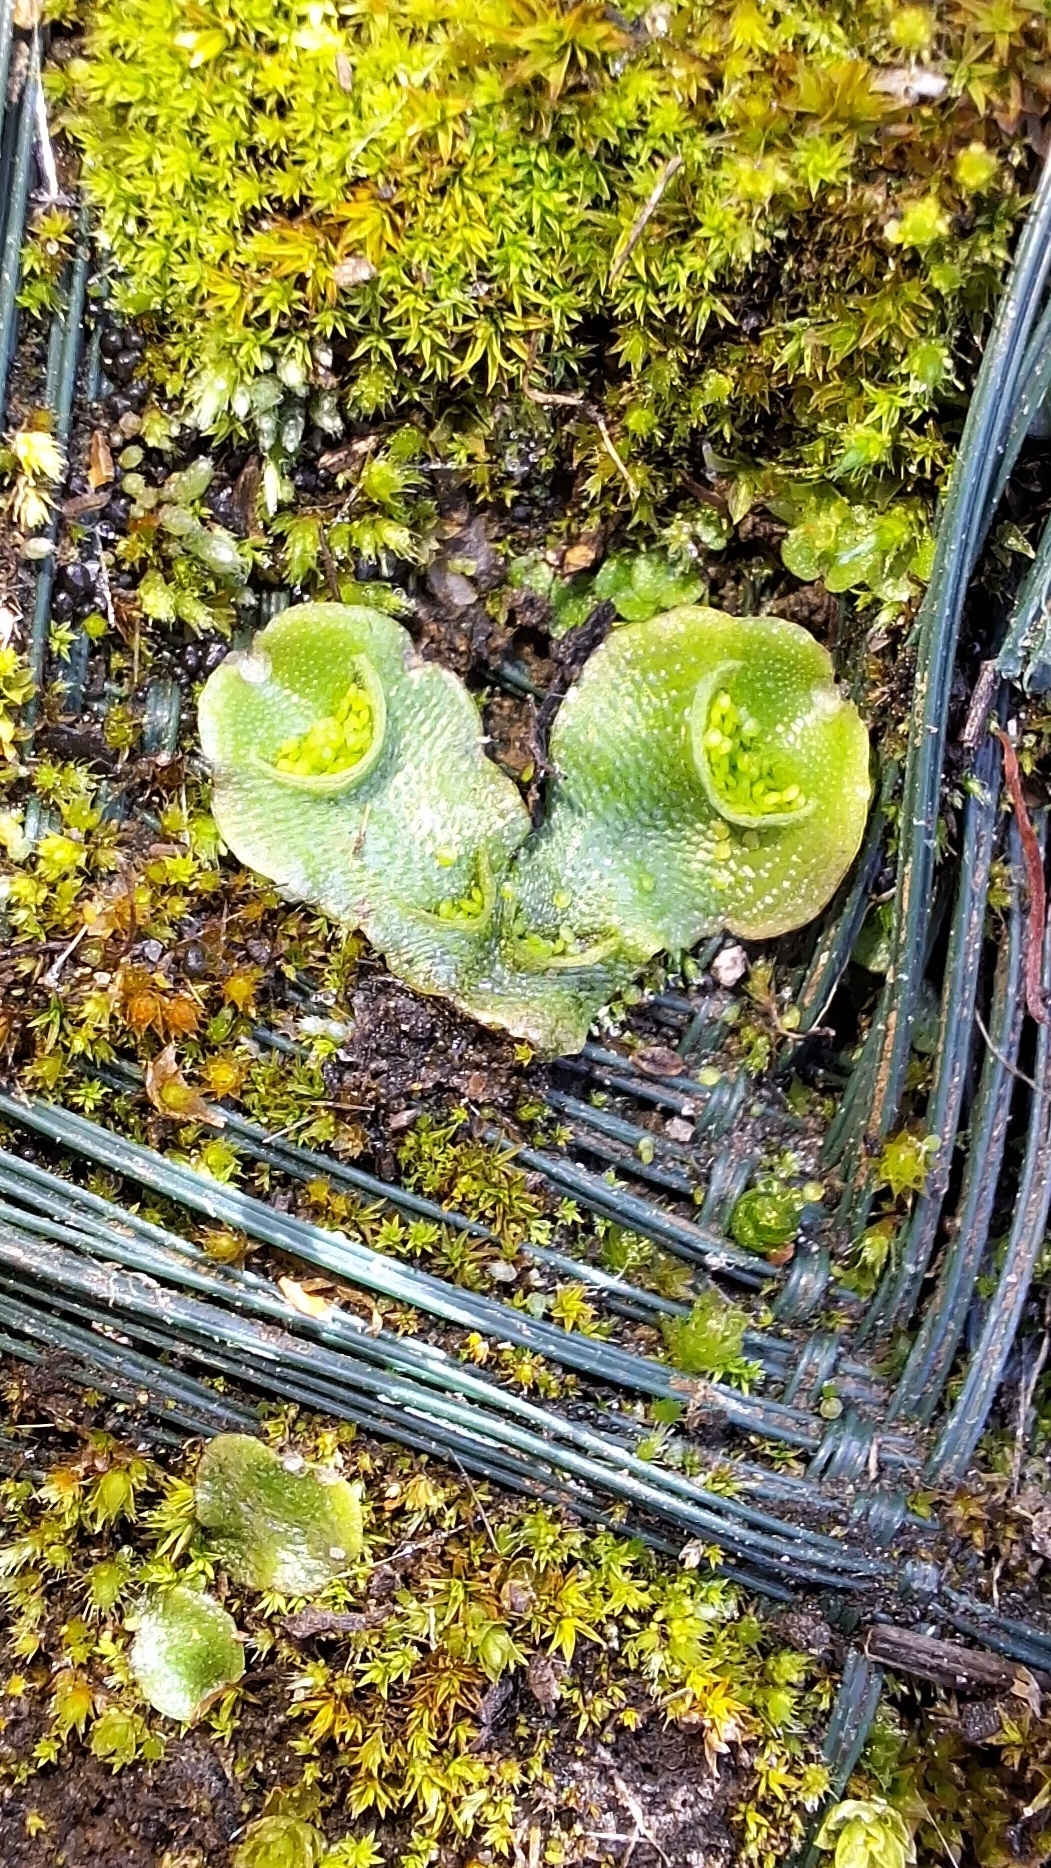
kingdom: Plantae
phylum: Marchantiophyta
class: Marchantiopsida
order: Lunulariales
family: Lunulariaceae
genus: Lunularia
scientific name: Lunularia cruciata
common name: Crescent-cup liverwort
